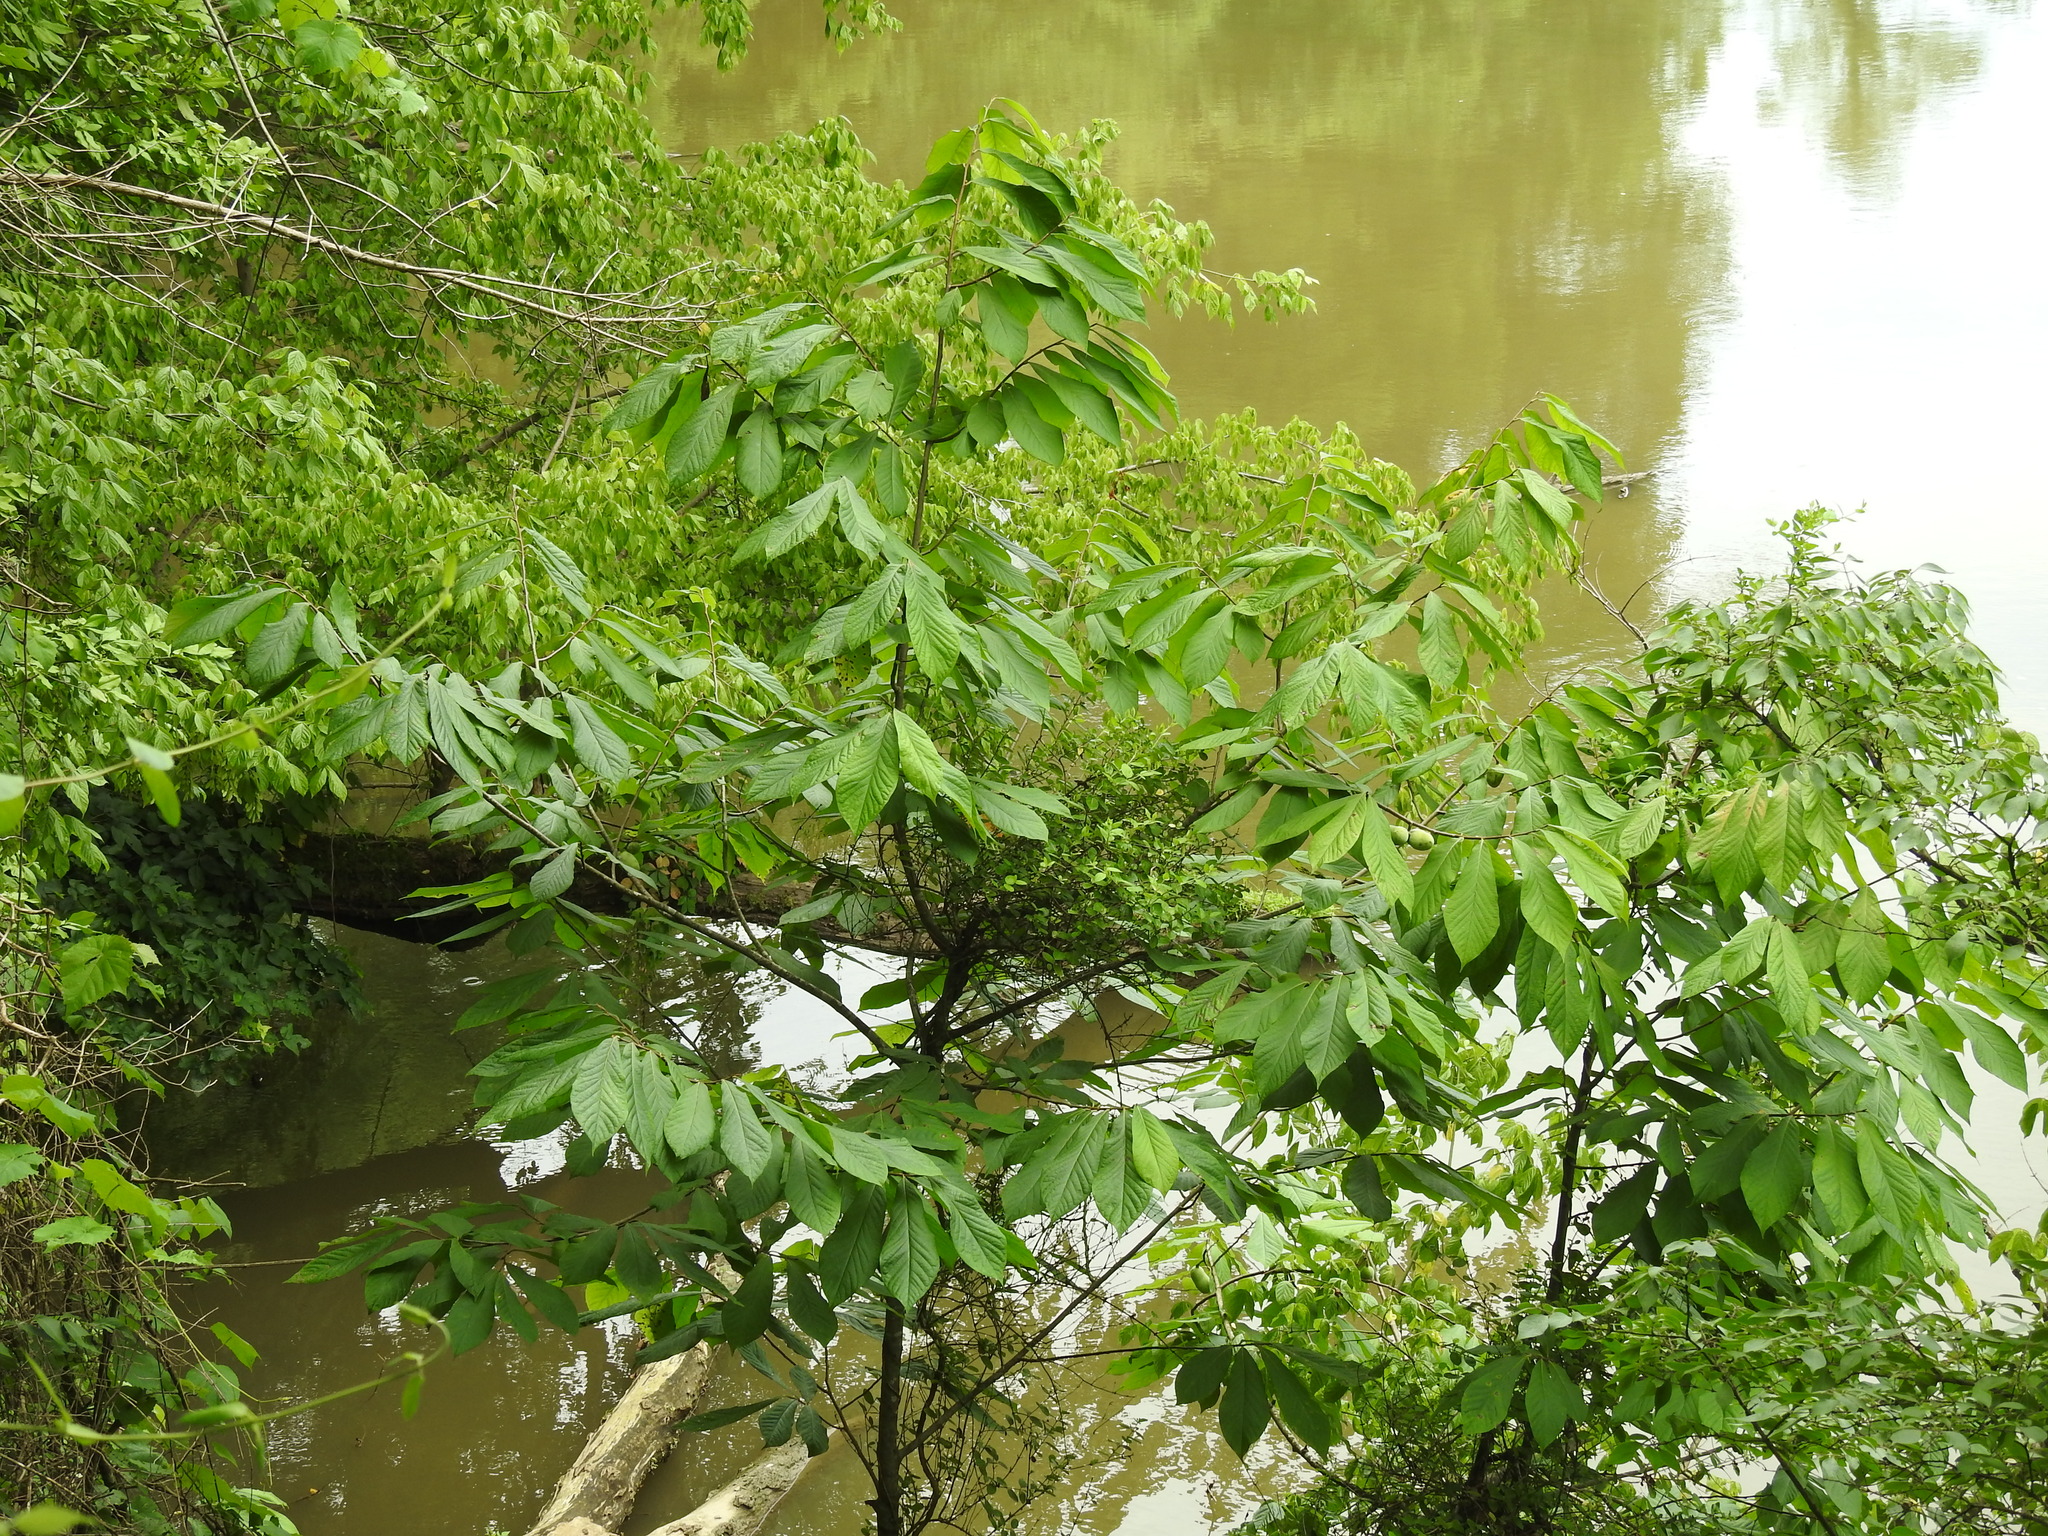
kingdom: Plantae
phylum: Tracheophyta
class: Magnoliopsida
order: Magnoliales
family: Annonaceae
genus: Asimina
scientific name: Asimina triloba
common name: Dog-banana
